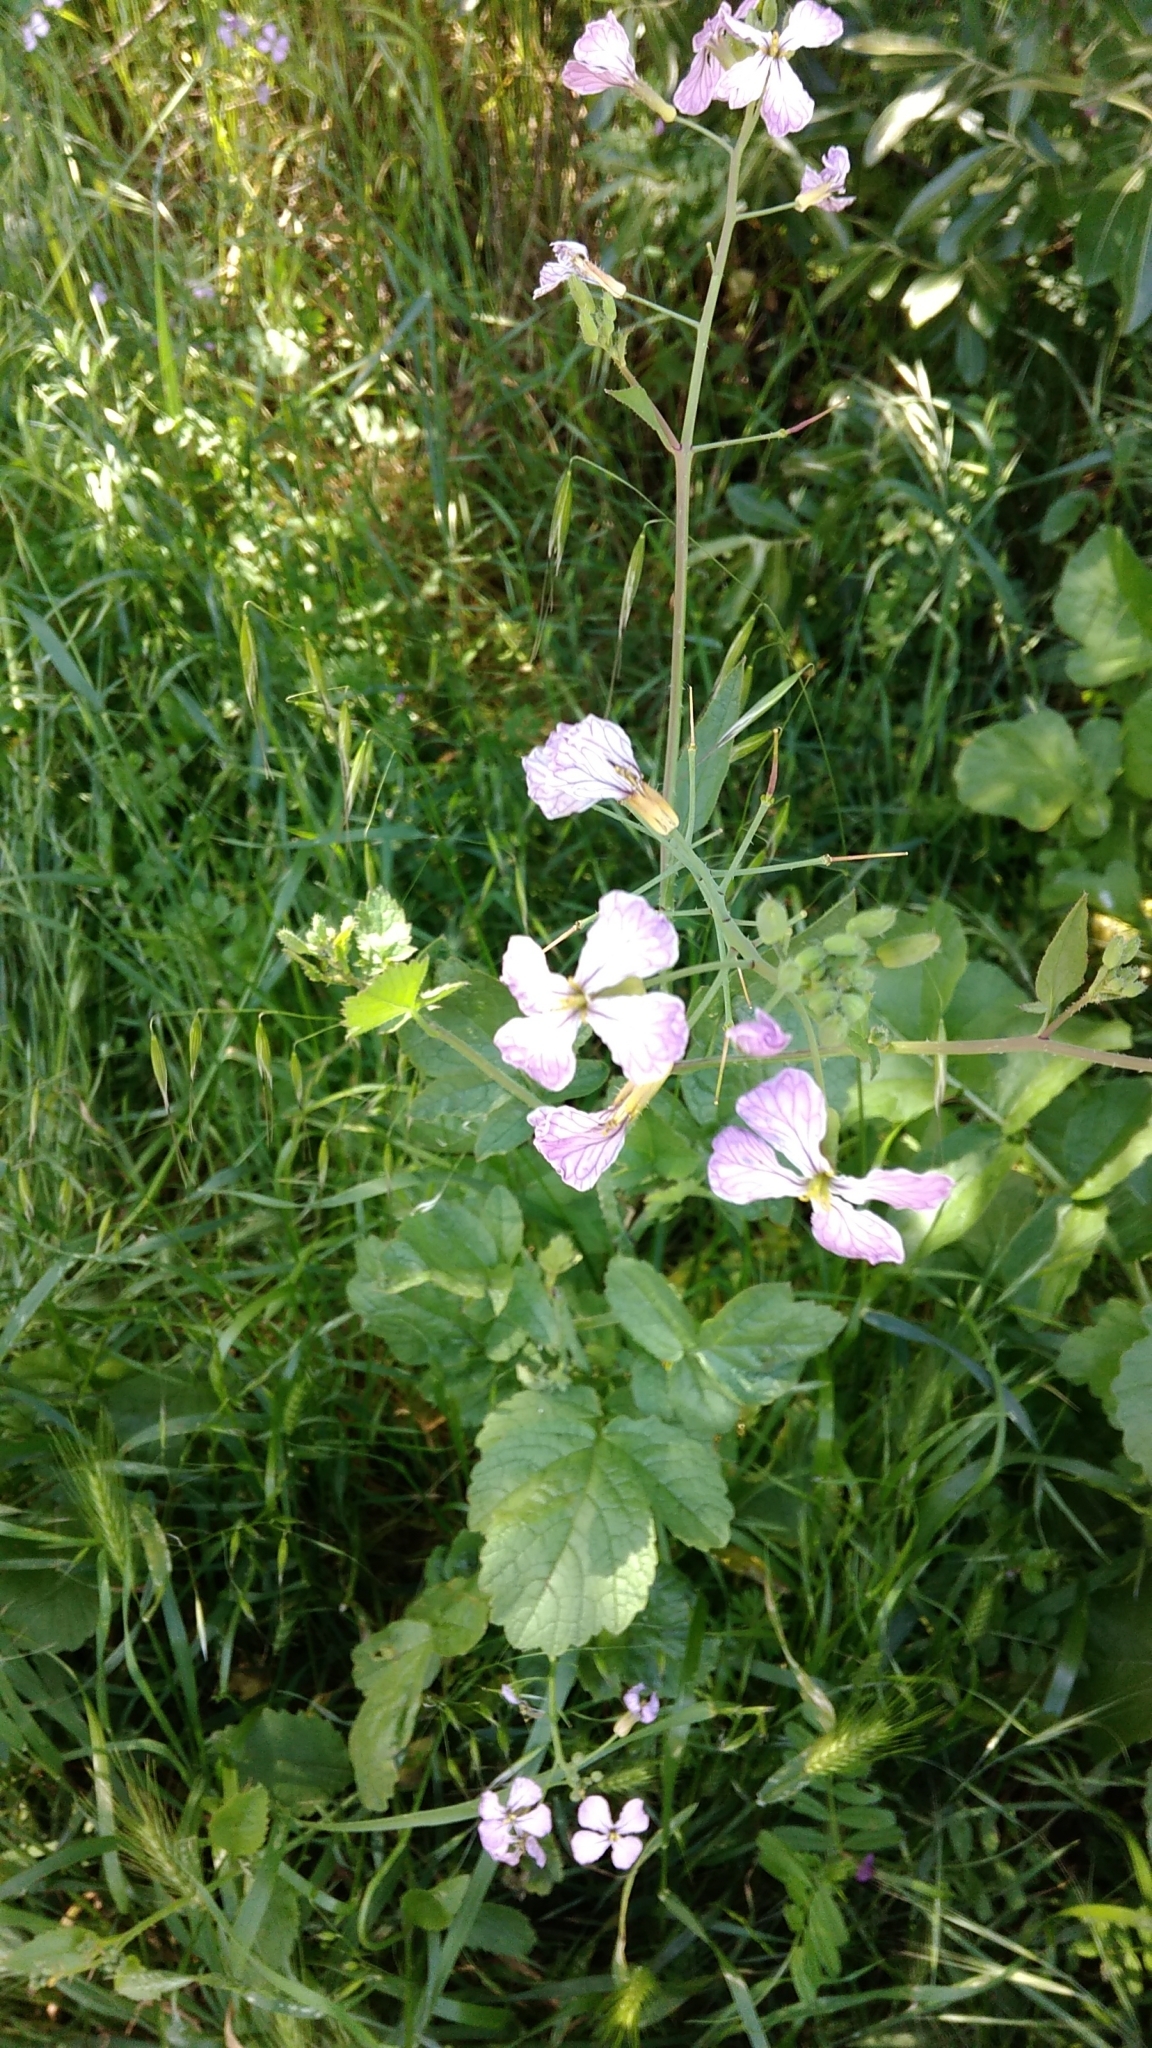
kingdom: Plantae
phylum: Tracheophyta
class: Magnoliopsida
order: Brassicales
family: Brassicaceae
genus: Raphanus
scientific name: Raphanus sativus
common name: Cultivated radish
